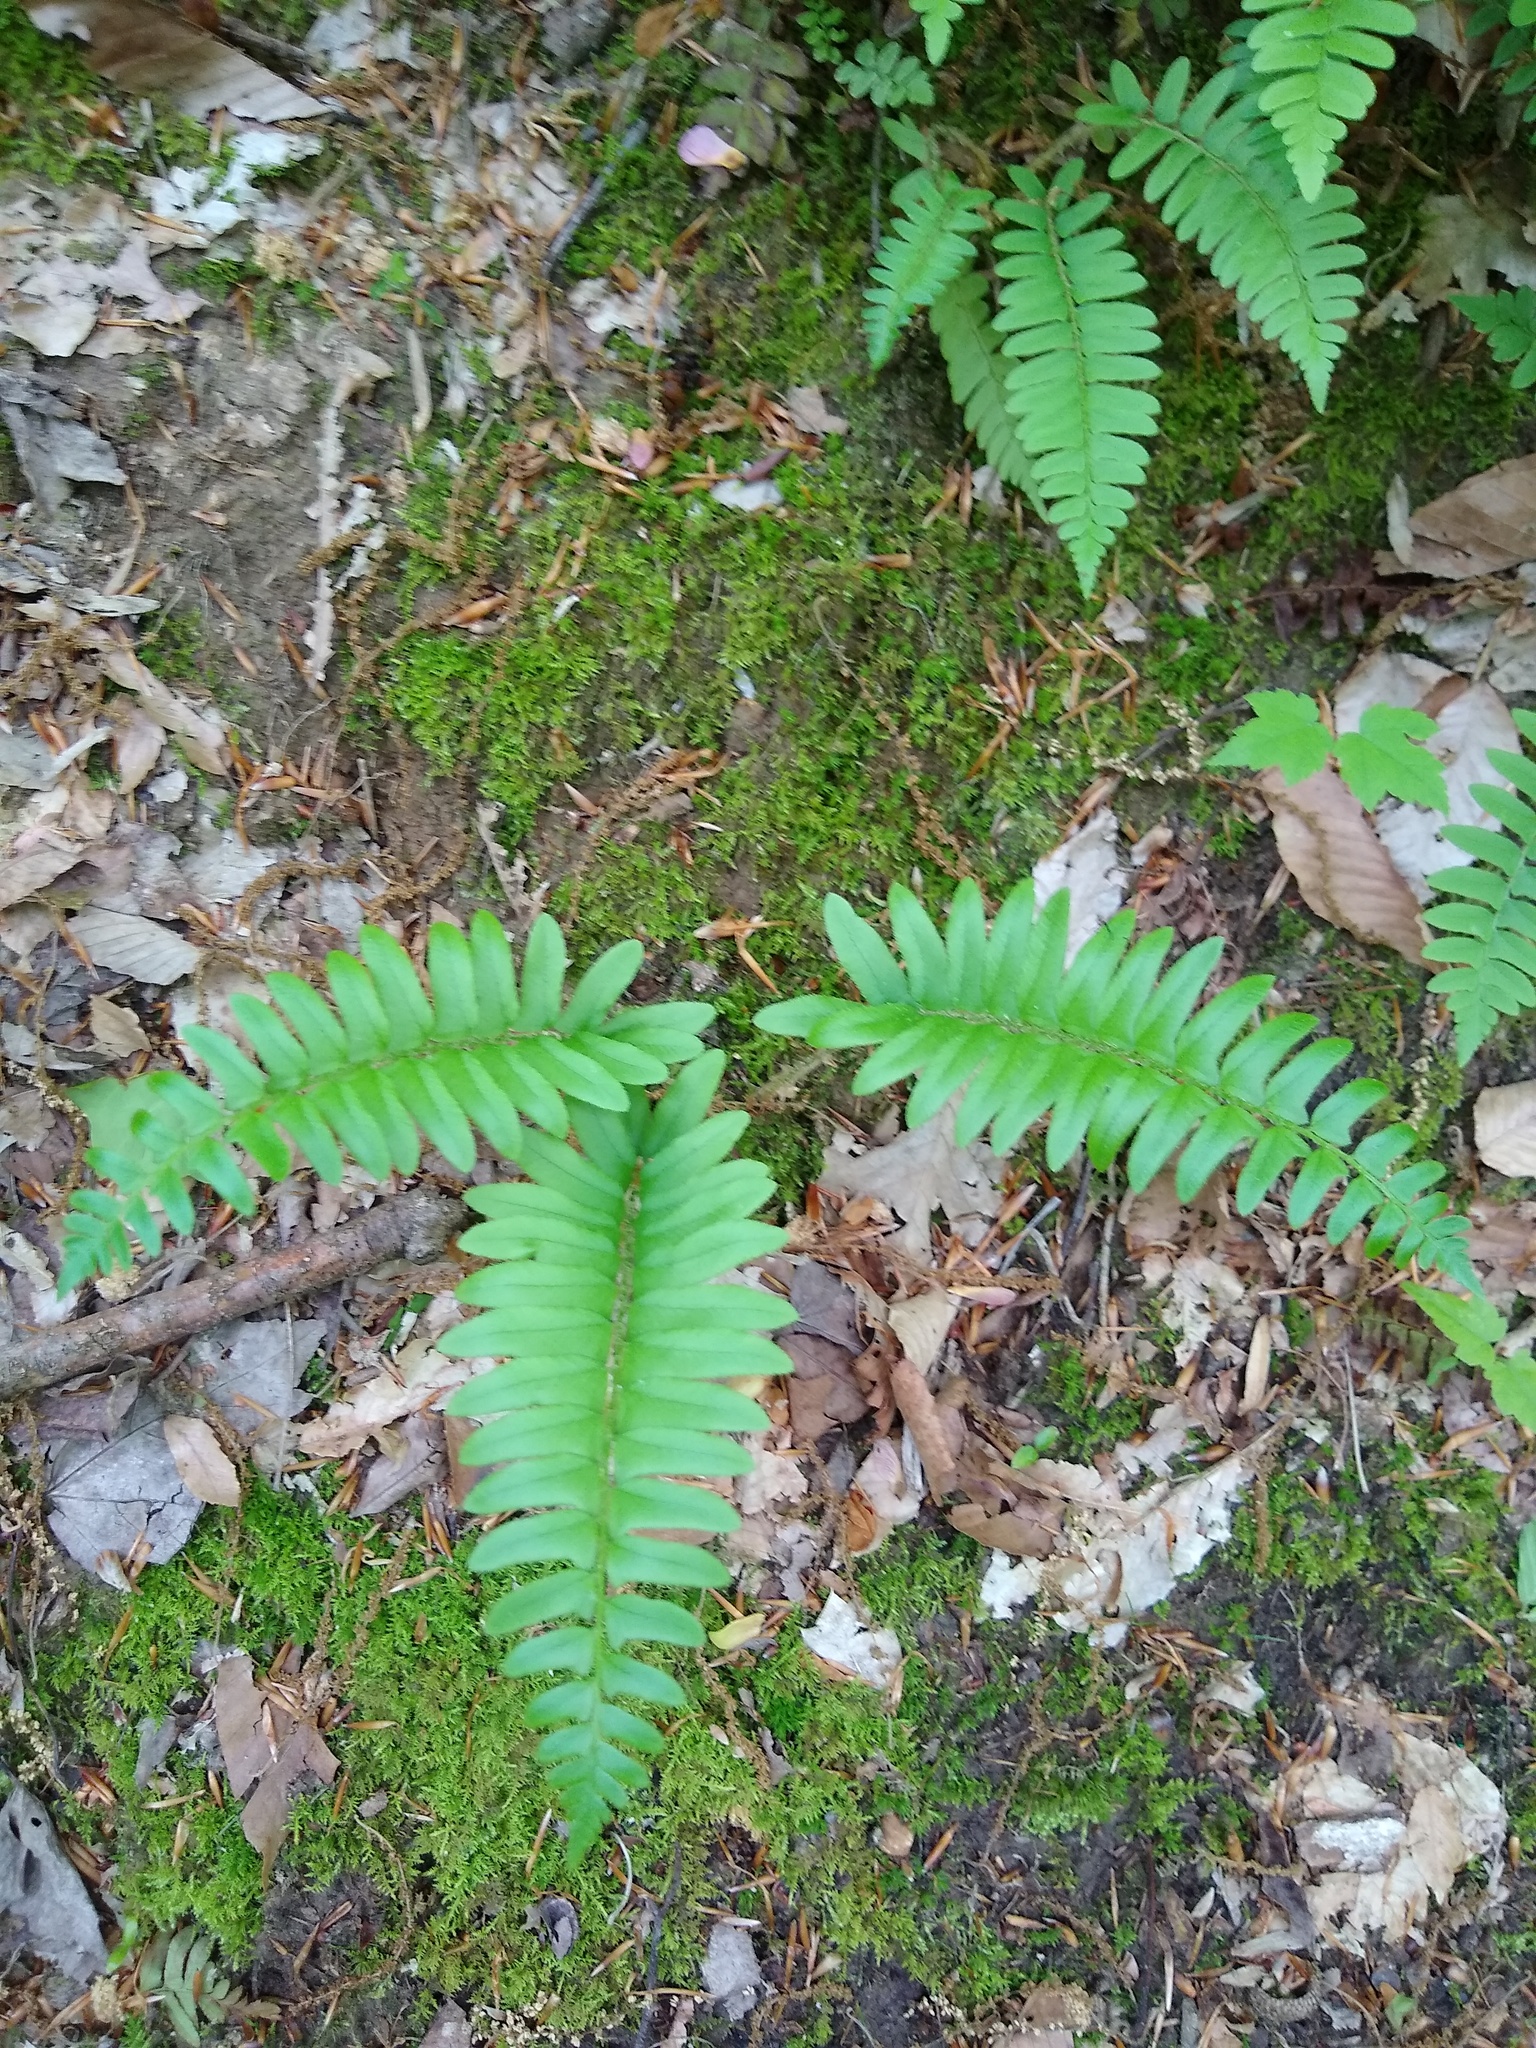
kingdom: Plantae
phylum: Tracheophyta
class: Polypodiopsida
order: Polypodiales
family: Dryopteridaceae
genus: Polystichum
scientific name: Polystichum acrostichoides
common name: Christmas fern
